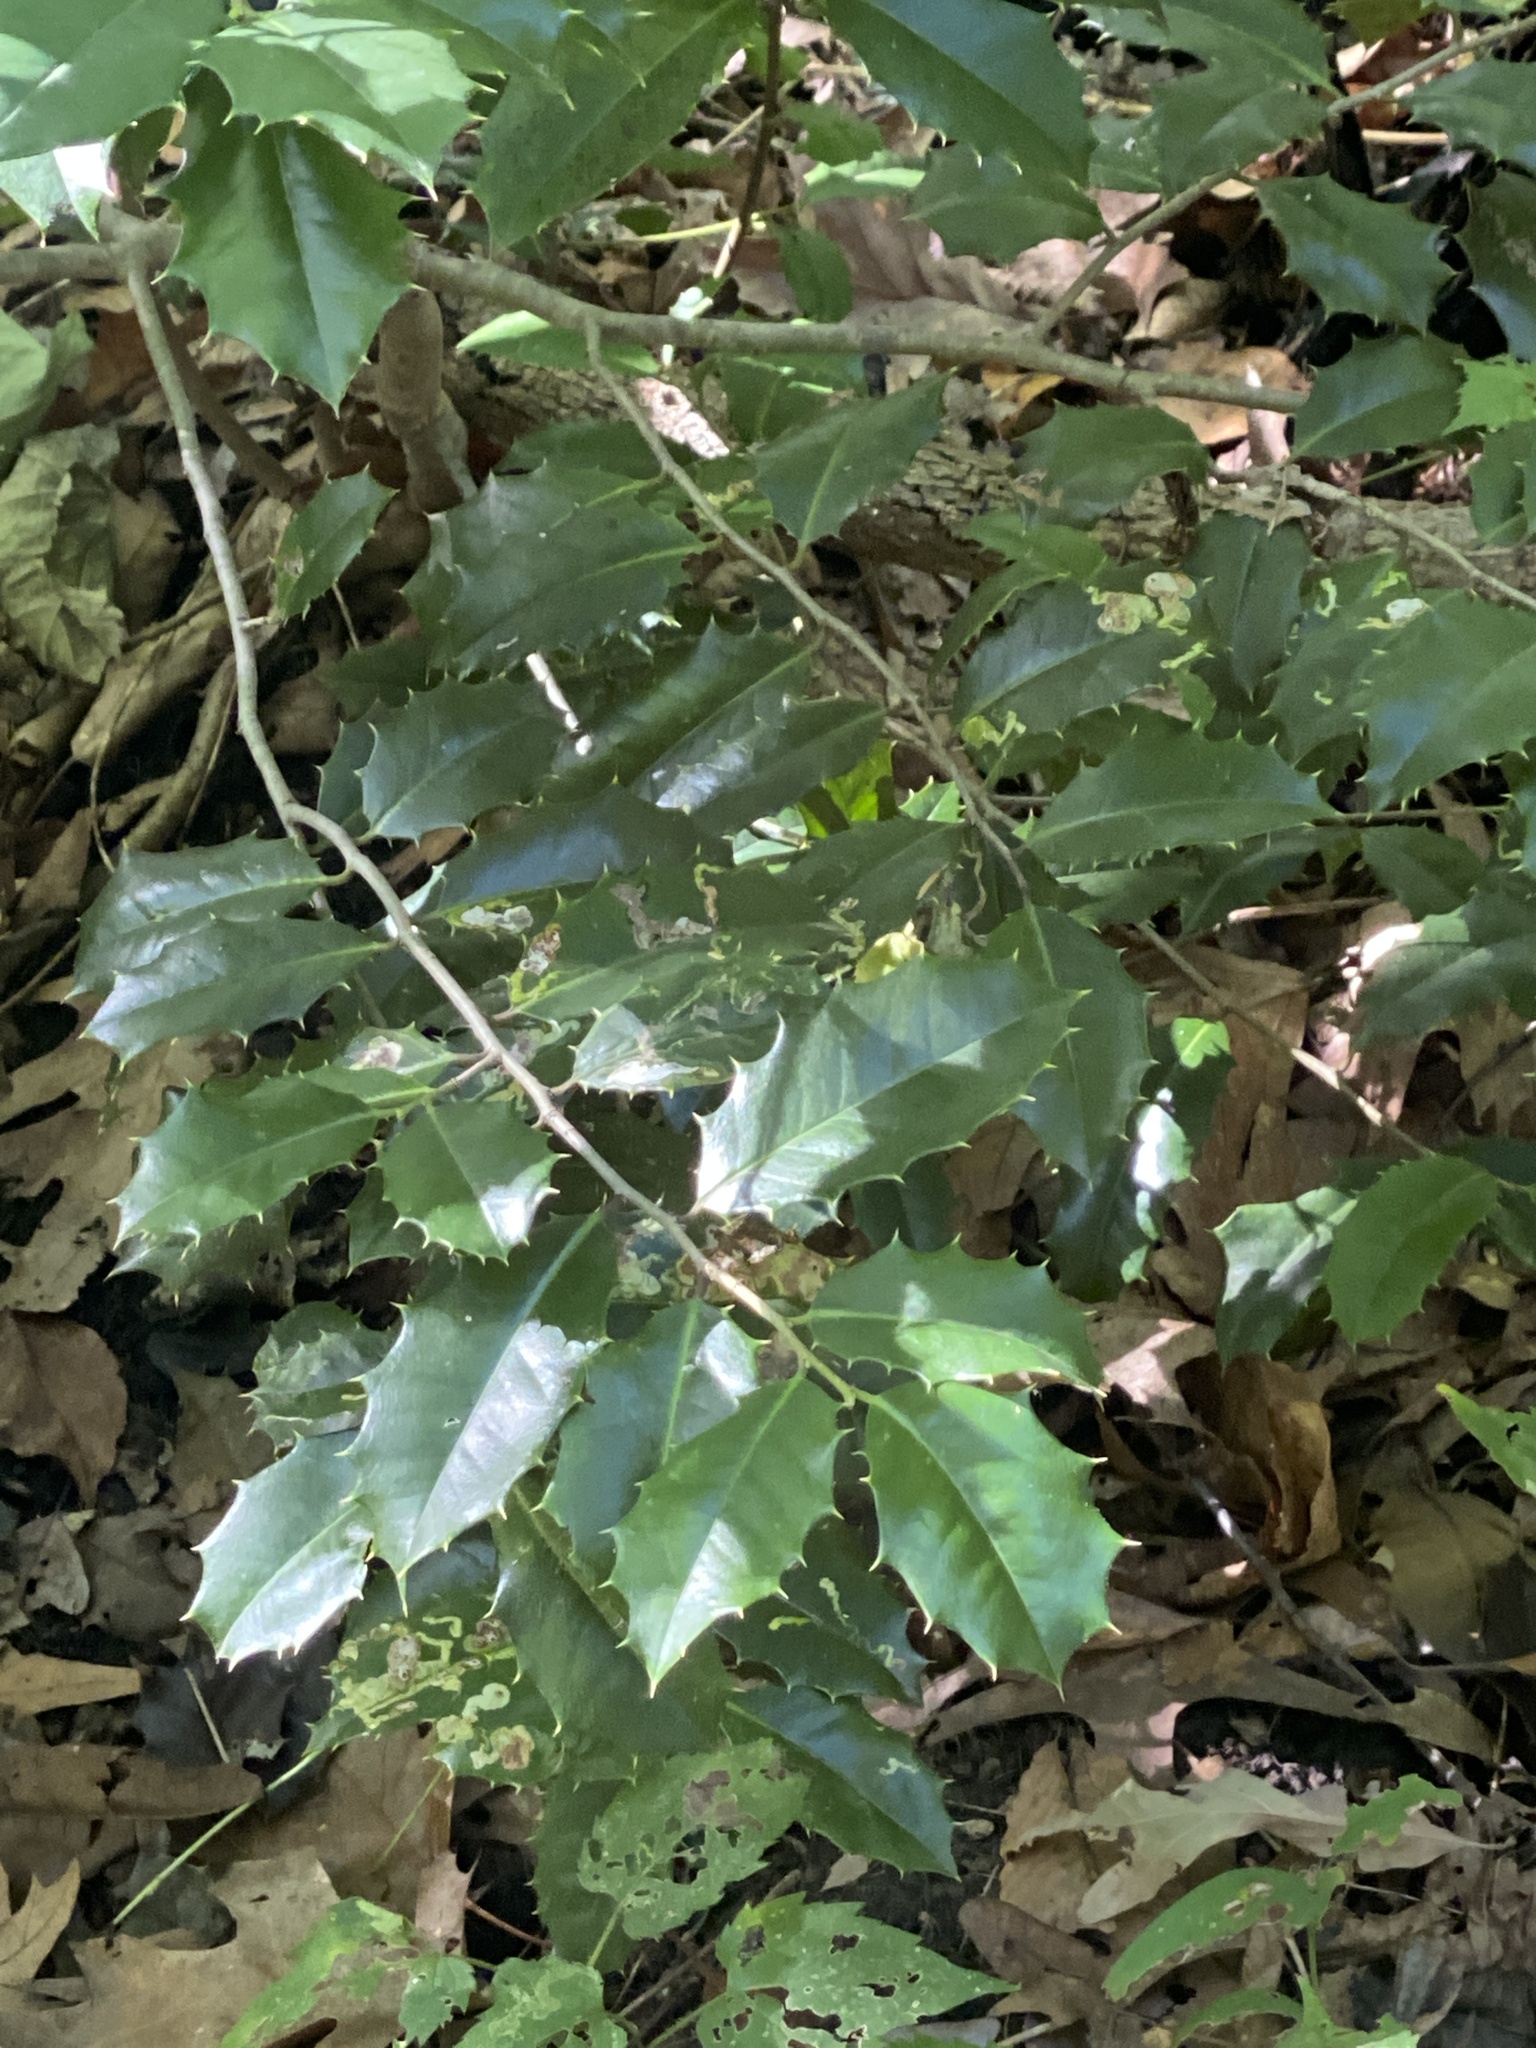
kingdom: Plantae
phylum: Tracheophyta
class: Magnoliopsida
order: Aquifoliales
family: Aquifoliaceae
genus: Ilex
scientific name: Ilex opaca
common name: American holly
